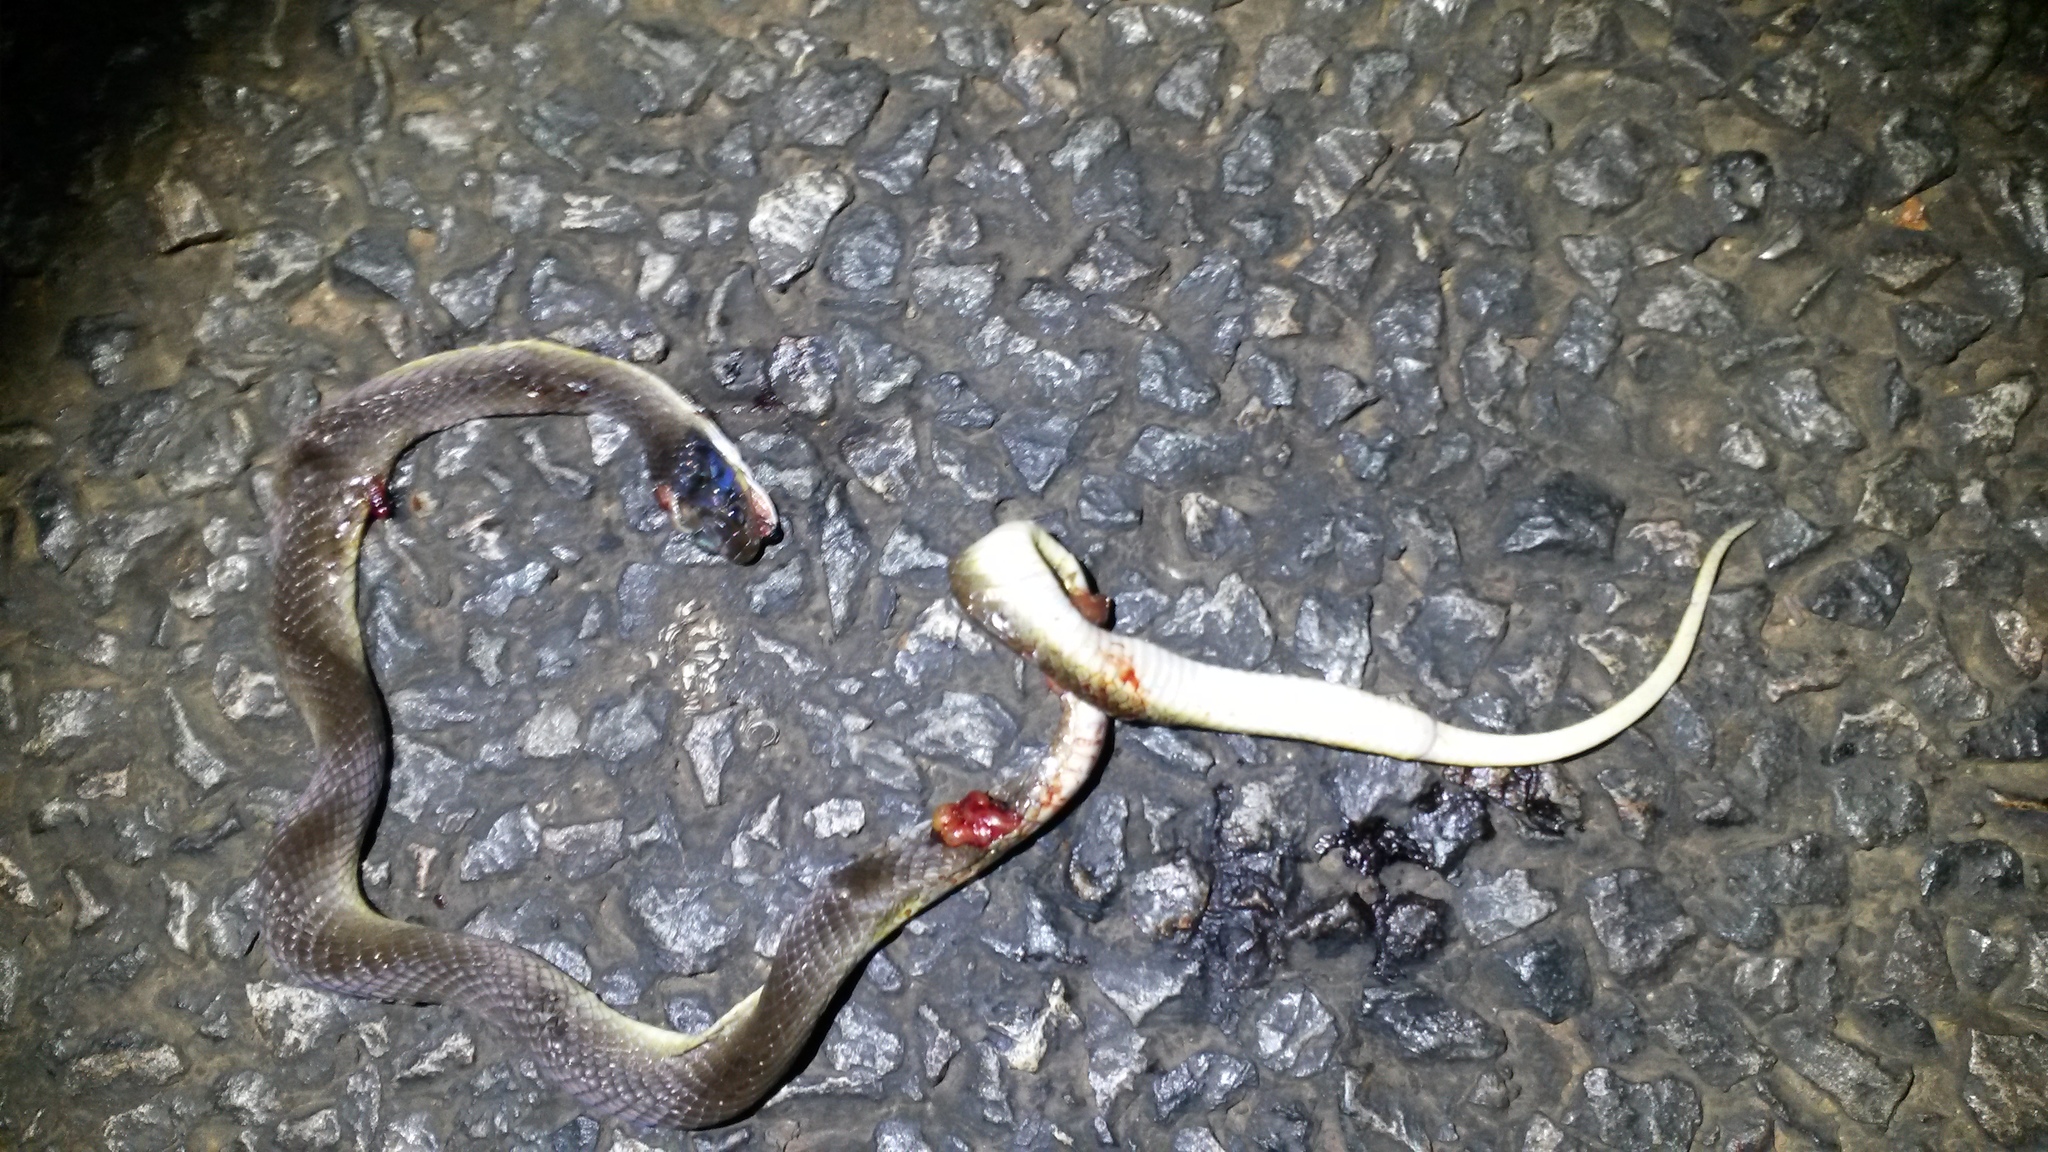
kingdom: Animalia
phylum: Chordata
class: Squamata
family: Colubridae
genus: Crotaphopeltis
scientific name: Crotaphopeltis hotamboeia
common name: Red-lipped snake
